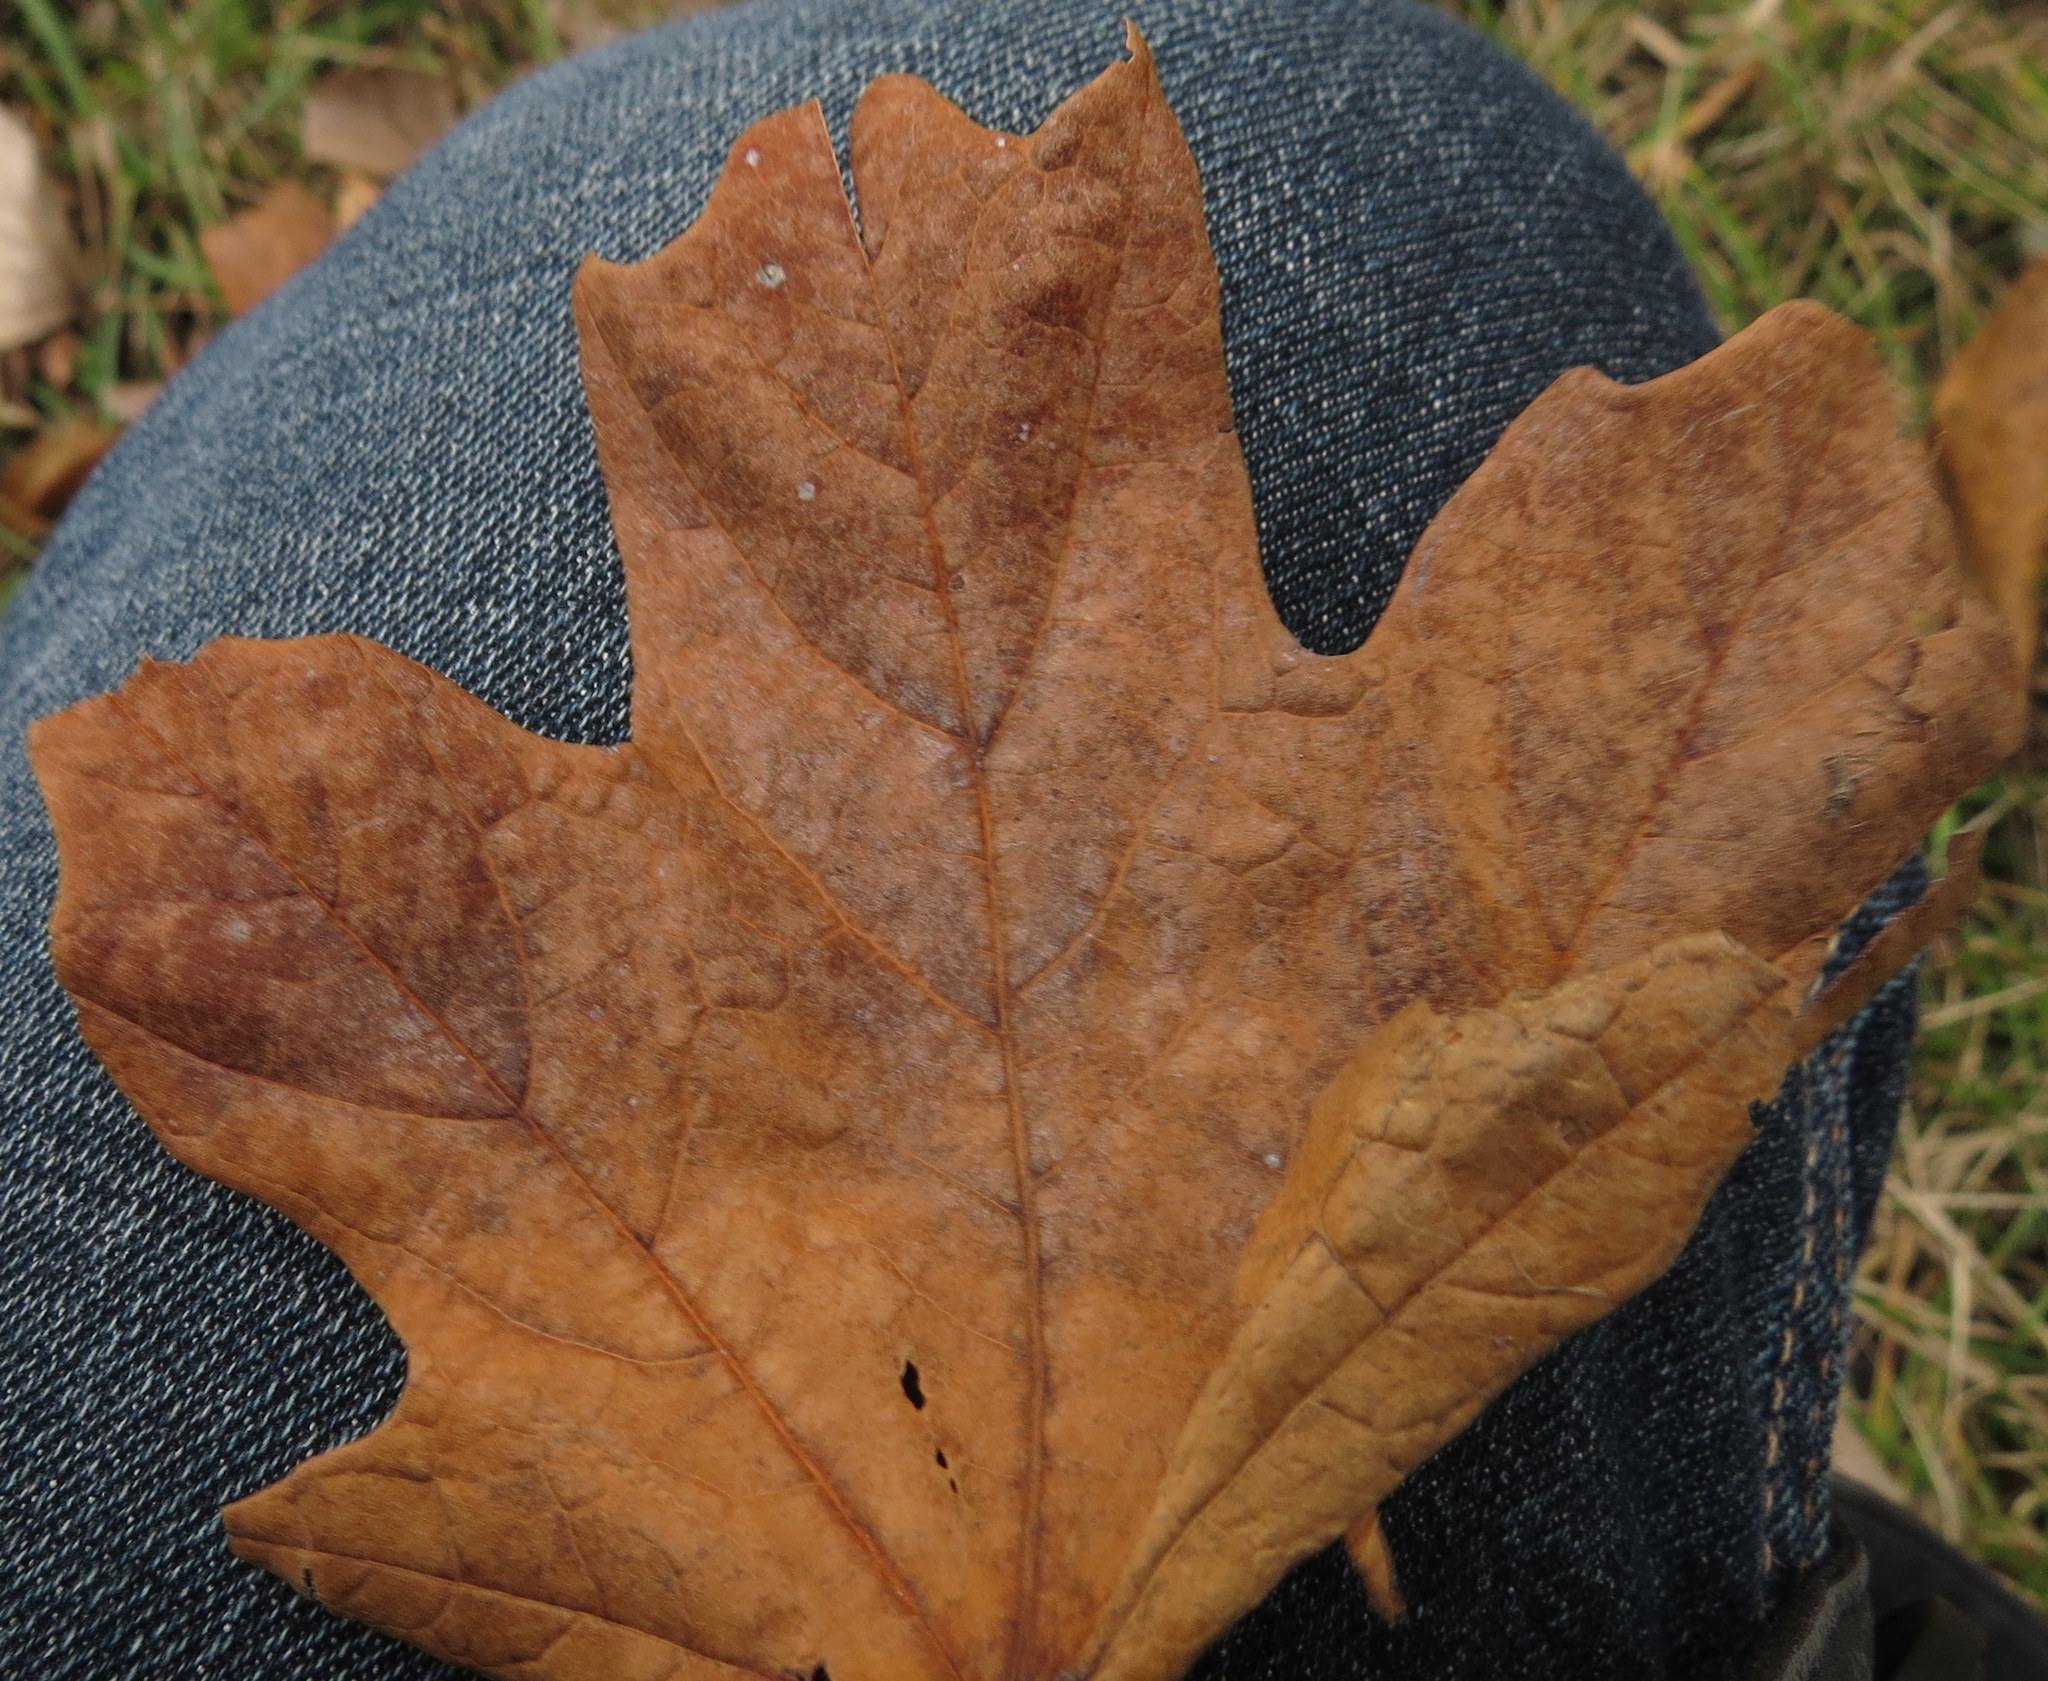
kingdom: Plantae
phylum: Tracheophyta
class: Magnoliopsida
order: Sapindales
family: Sapindaceae
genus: Acer
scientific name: Acer saccharum
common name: Sugar maple
